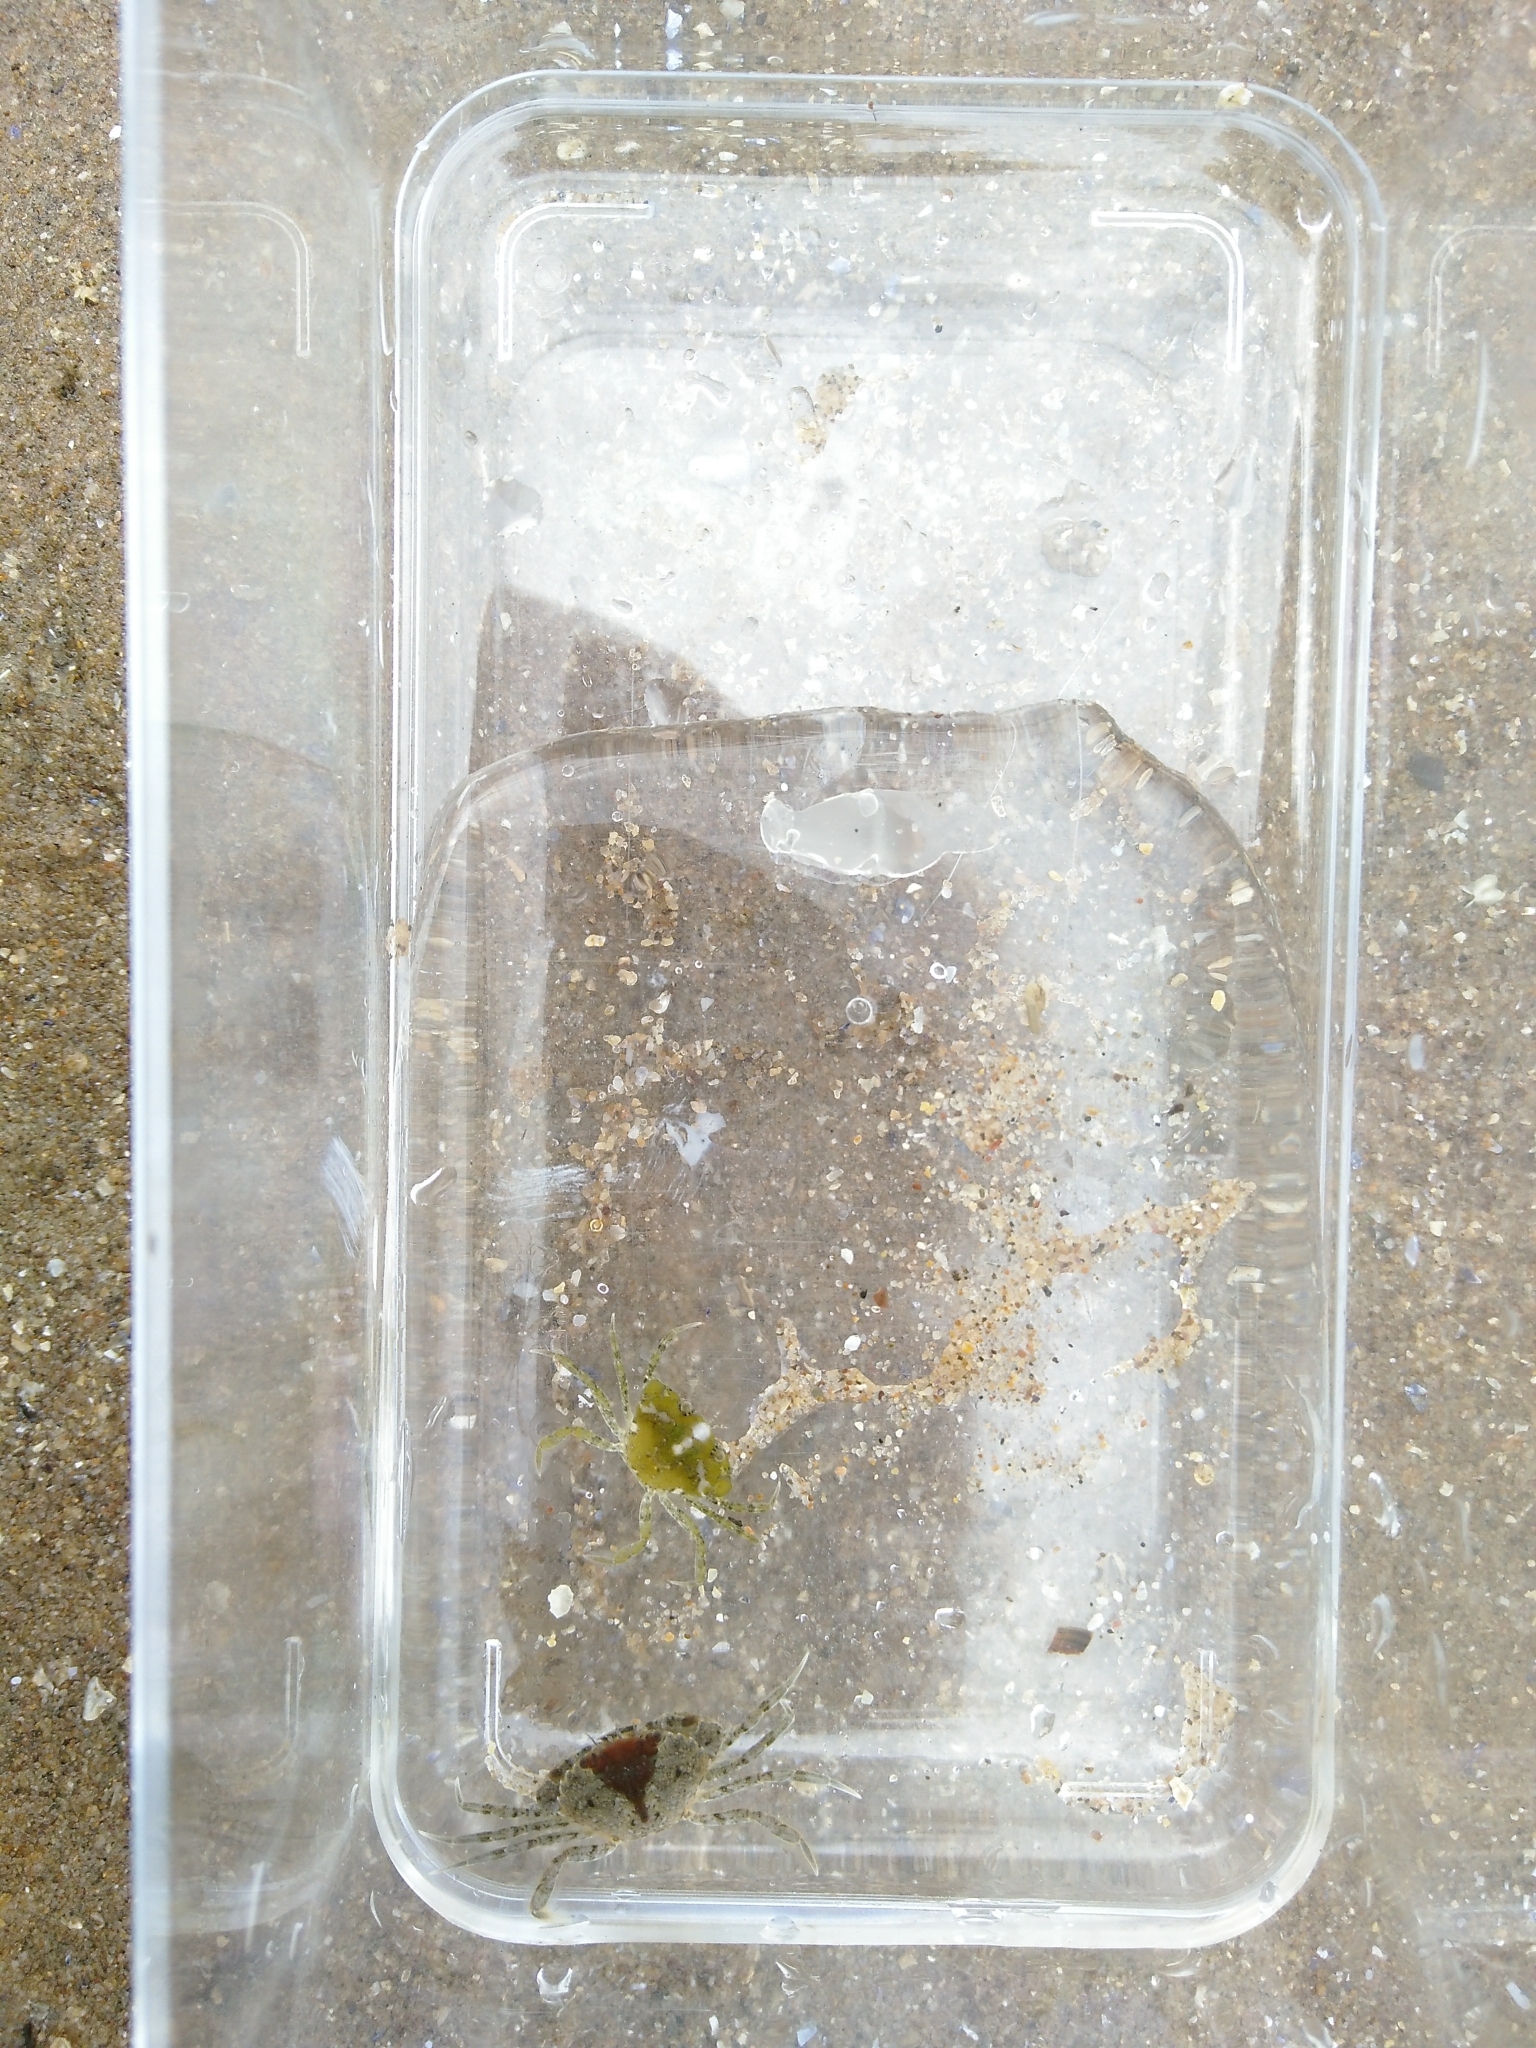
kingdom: Animalia
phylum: Arthropoda
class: Malacostraca
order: Decapoda
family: Carcinidae
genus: Carcinus
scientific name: Carcinus maenas
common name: European green crab
